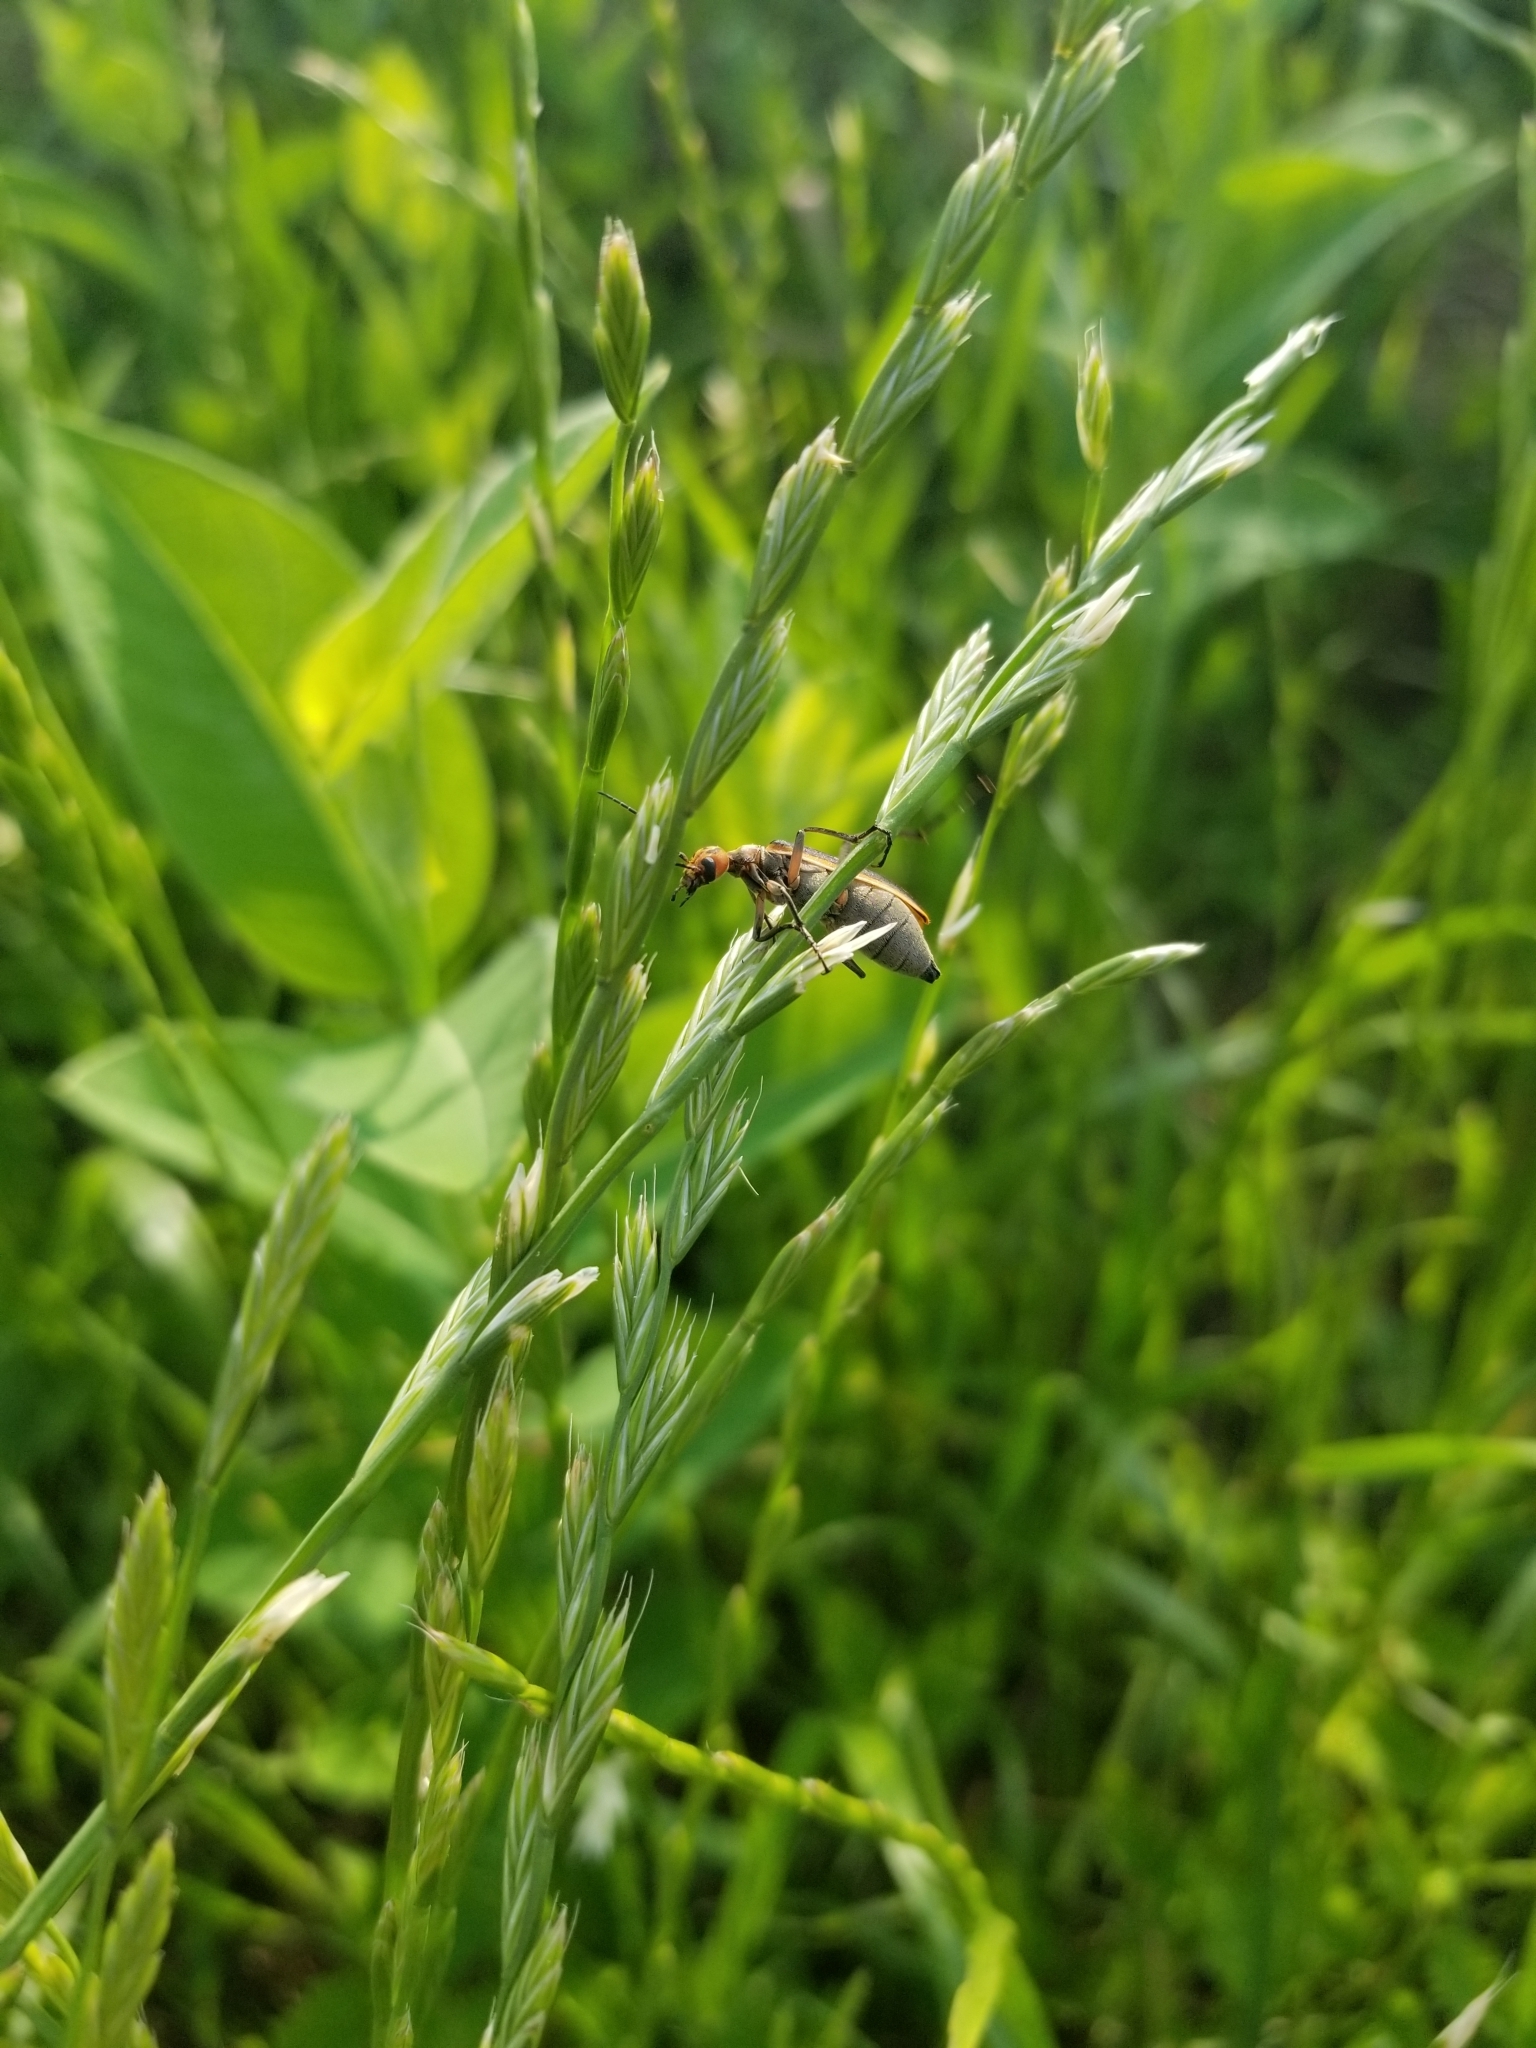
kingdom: Animalia
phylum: Arthropoda
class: Insecta
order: Coleoptera
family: Meloidae
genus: Epicauta
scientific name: Epicauta vittata
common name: Old-fashioned potato beetle
